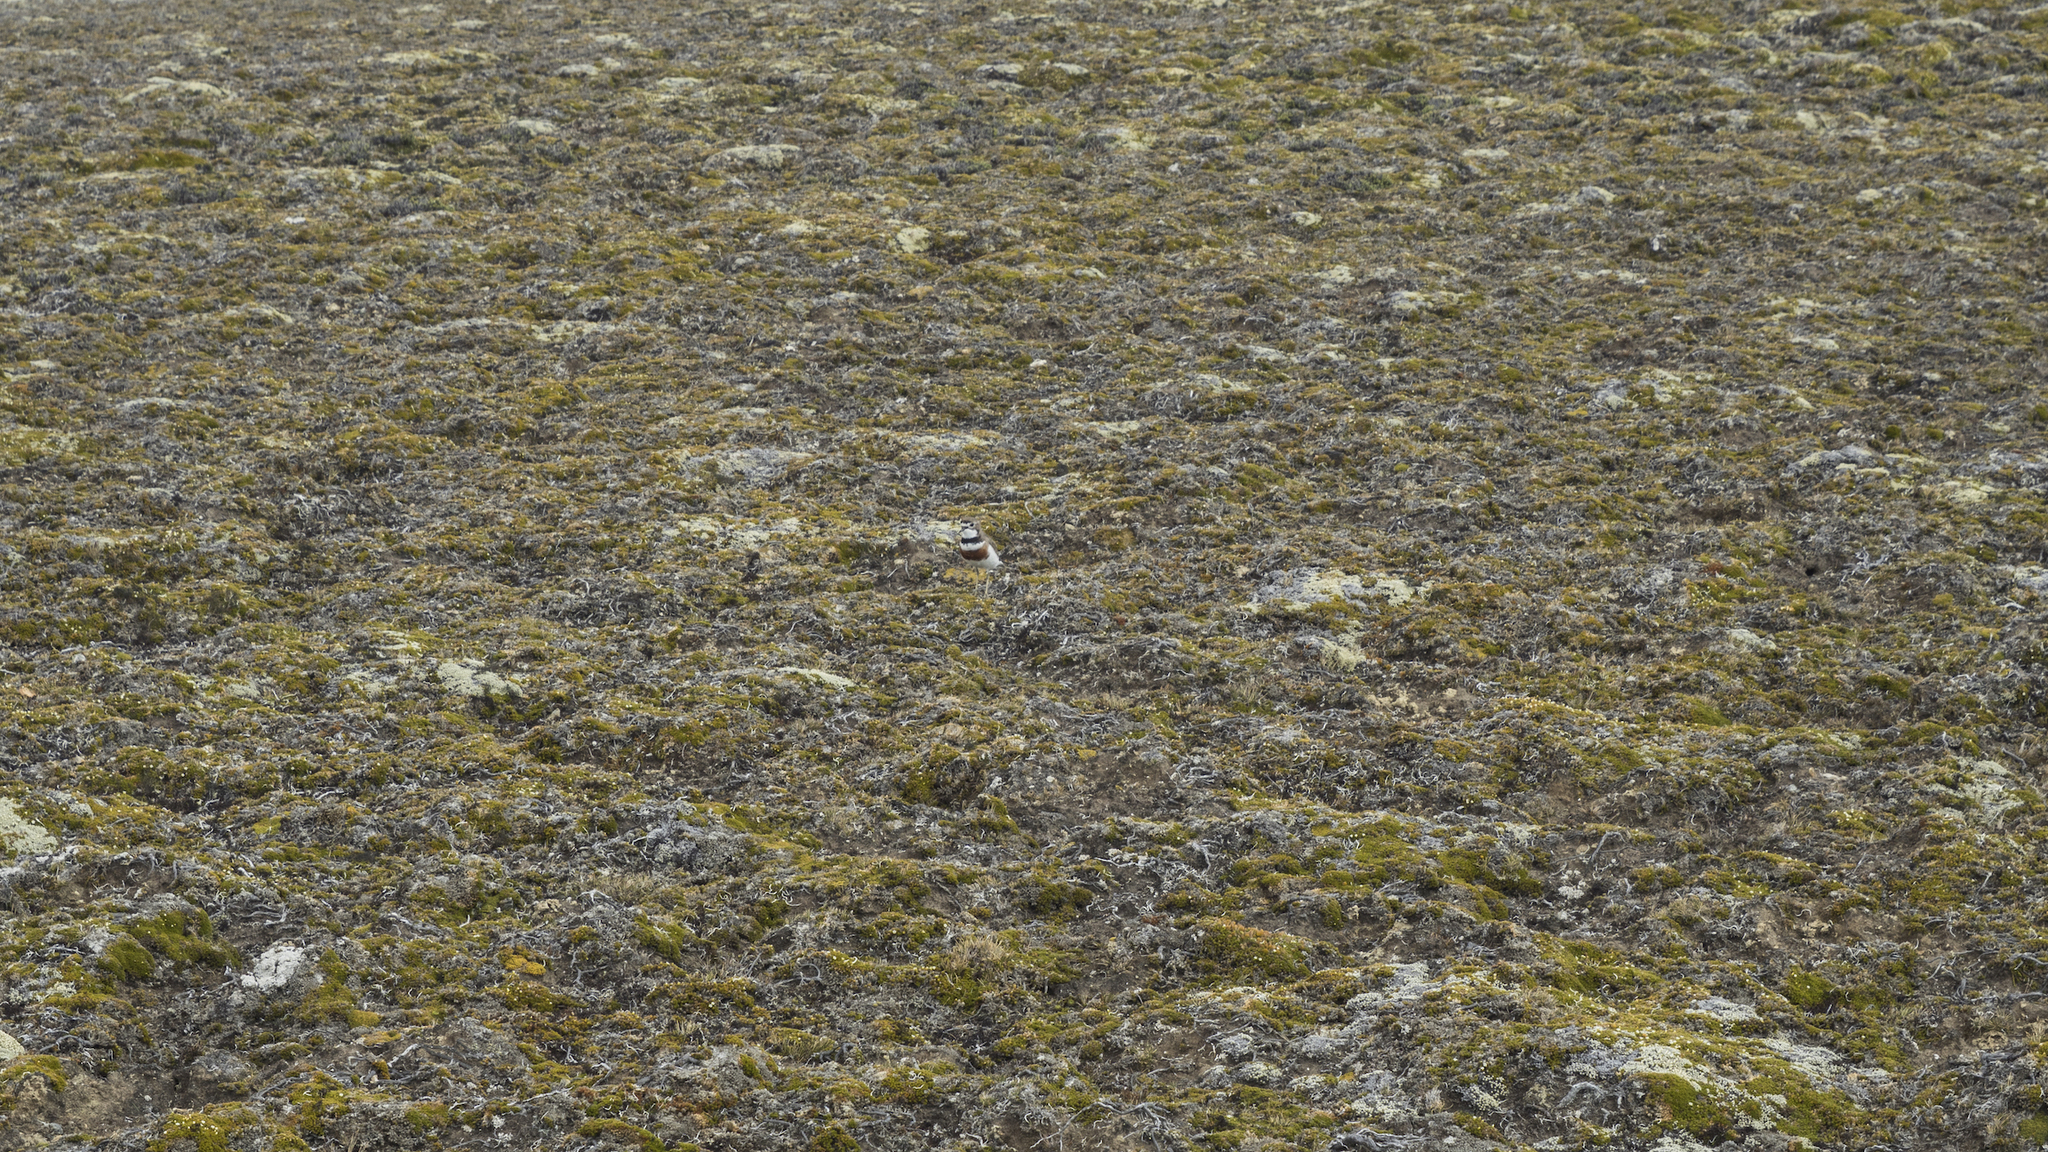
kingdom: Animalia
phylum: Chordata
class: Aves
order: Charadriiformes
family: Charadriidae
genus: Anarhynchus
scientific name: Anarhynchus
